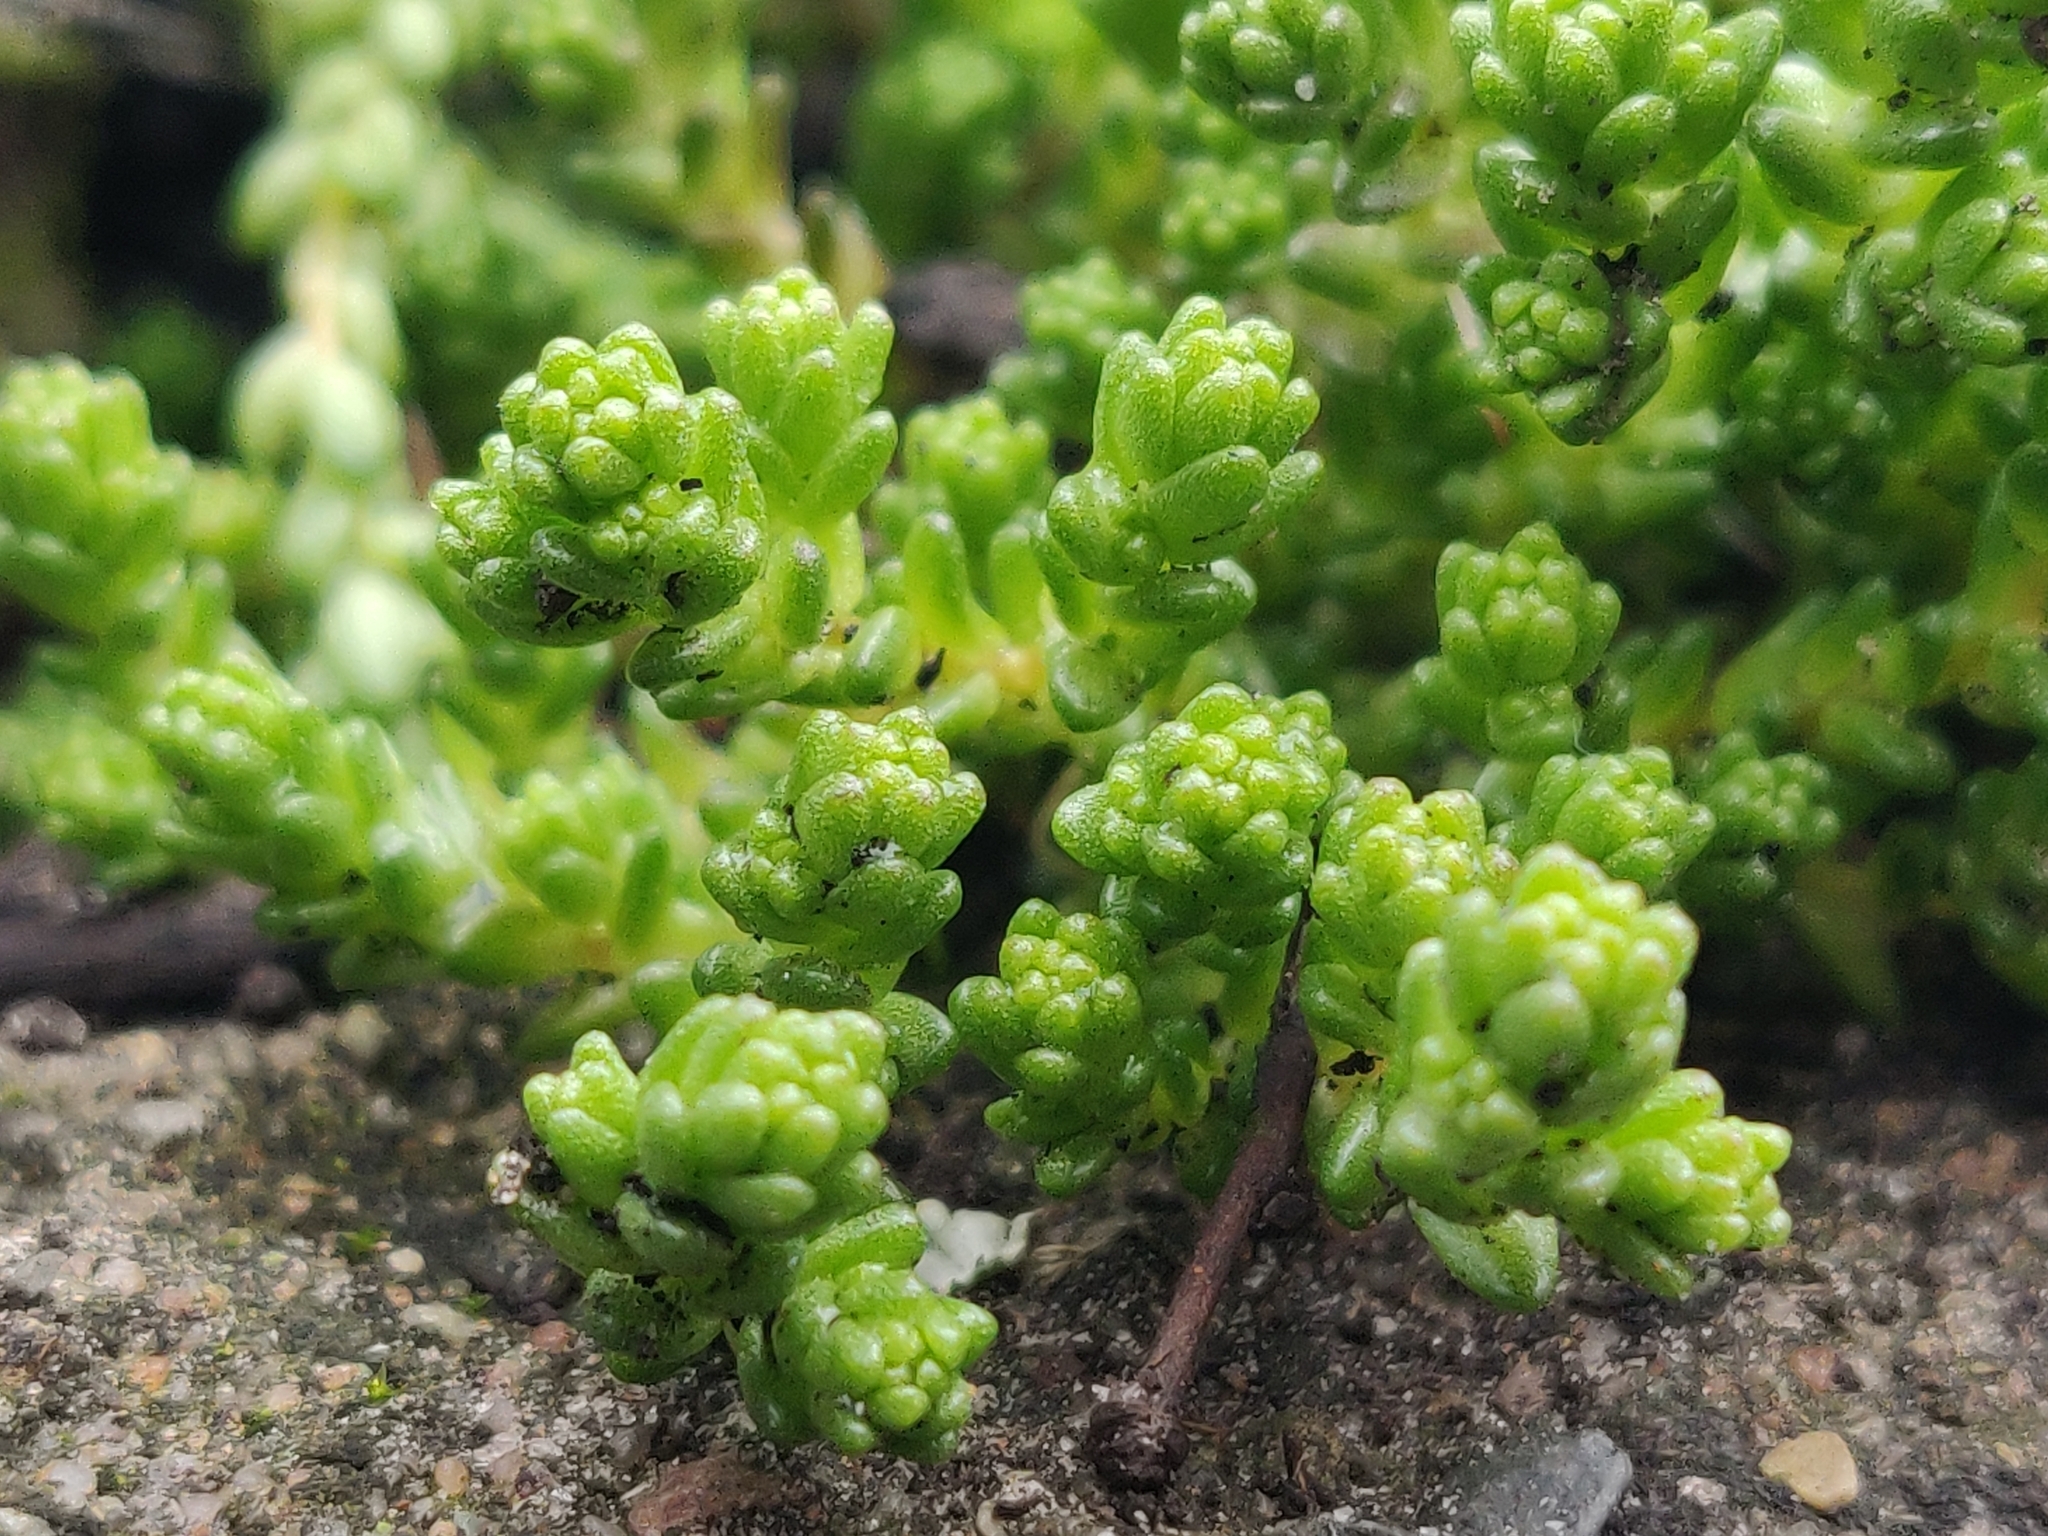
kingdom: Plantae
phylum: Tracheophyta
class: Magnoliopsida
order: Saxifragales
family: Crassulaceae
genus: Sedum
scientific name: Sedum acre
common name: Biting stonecrop
